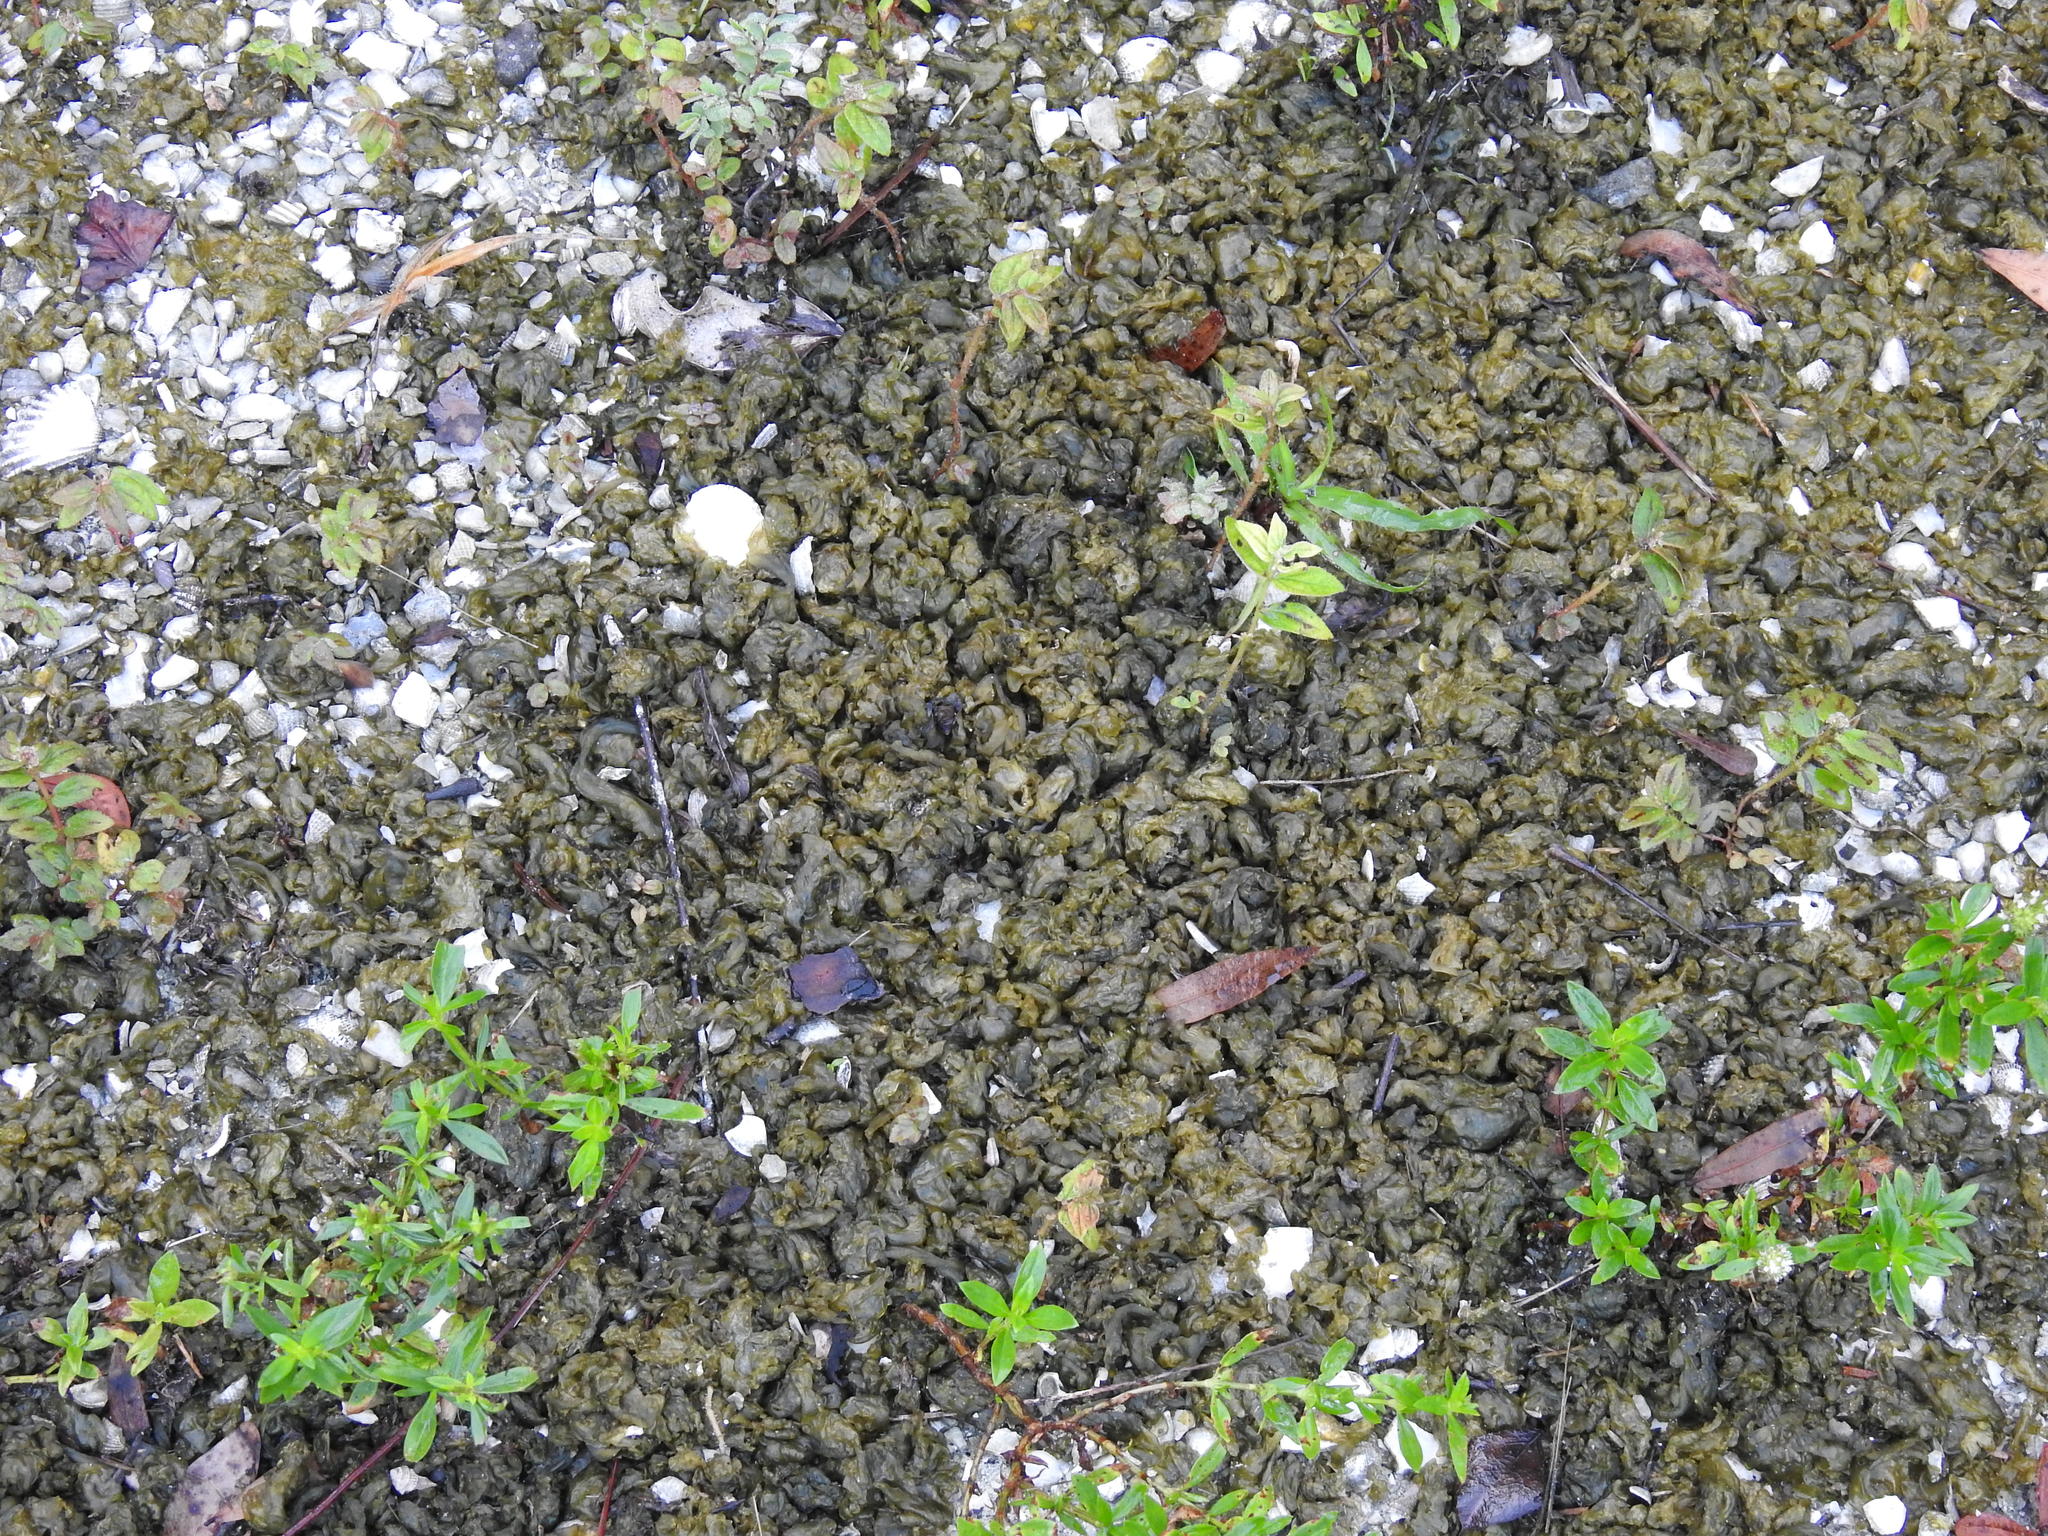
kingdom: Bacteria
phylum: Cyanobacteria
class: Cyanobacteriia
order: Cyanobacteriales
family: Nostocaceae
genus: Nostoc
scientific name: Nostoc commune
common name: Star jelly
